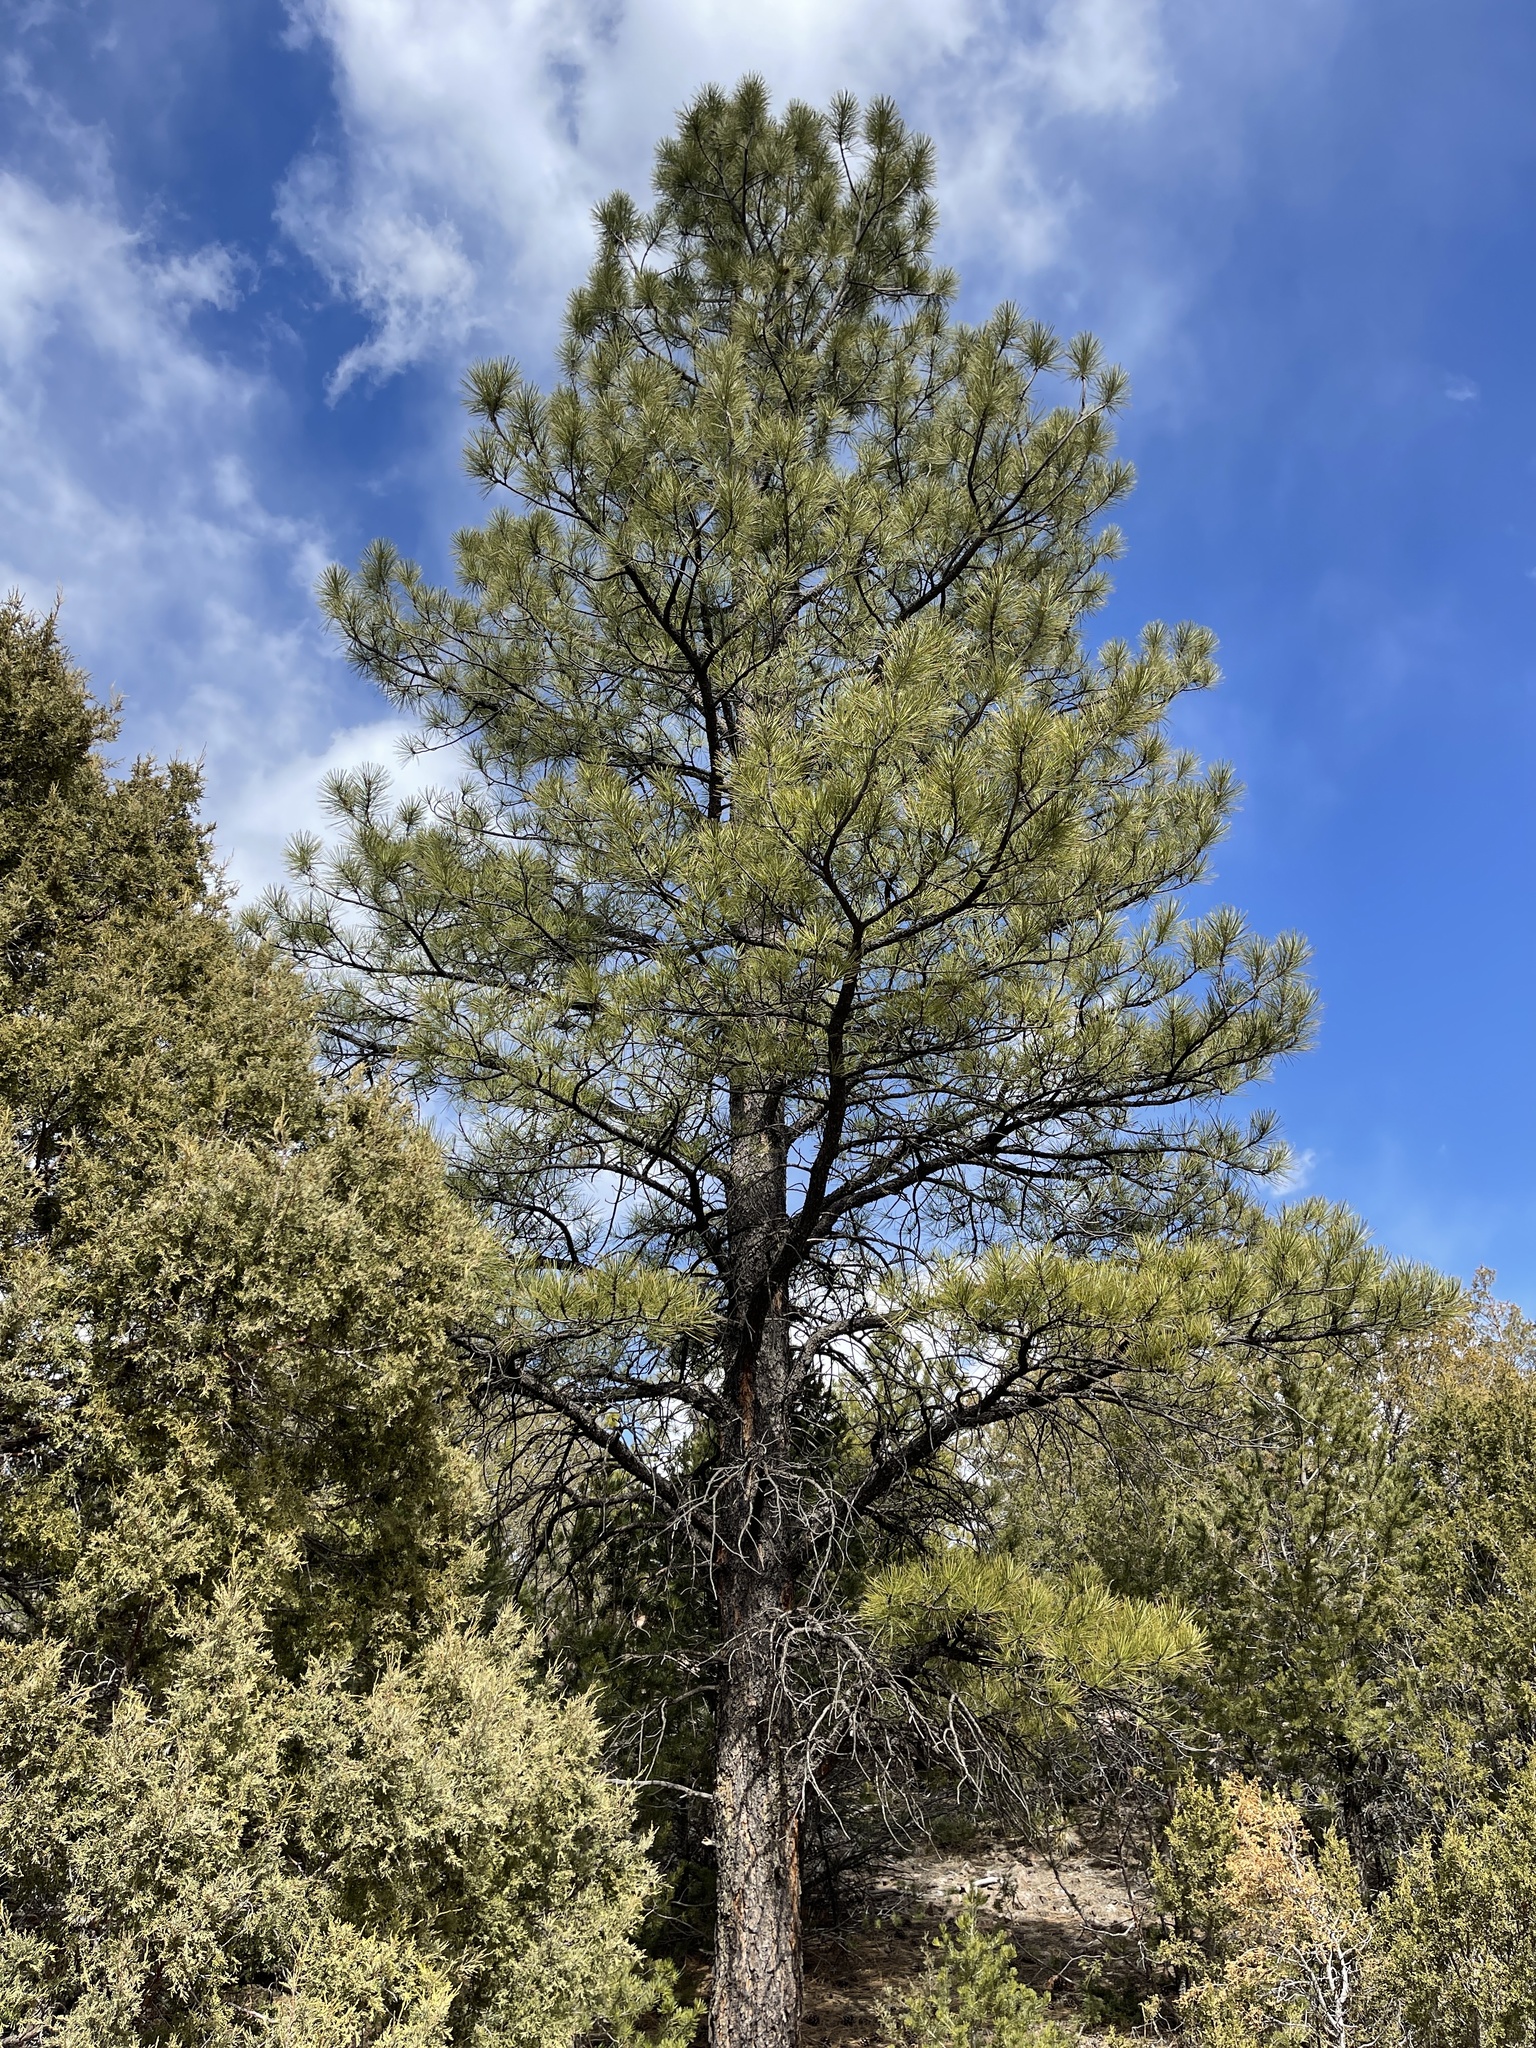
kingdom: Plantae
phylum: Tracheophyta
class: Pinopsida
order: Pinales
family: Pinaceae
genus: Pinus
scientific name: Pinus ponderosa
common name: Western yellow-pine
